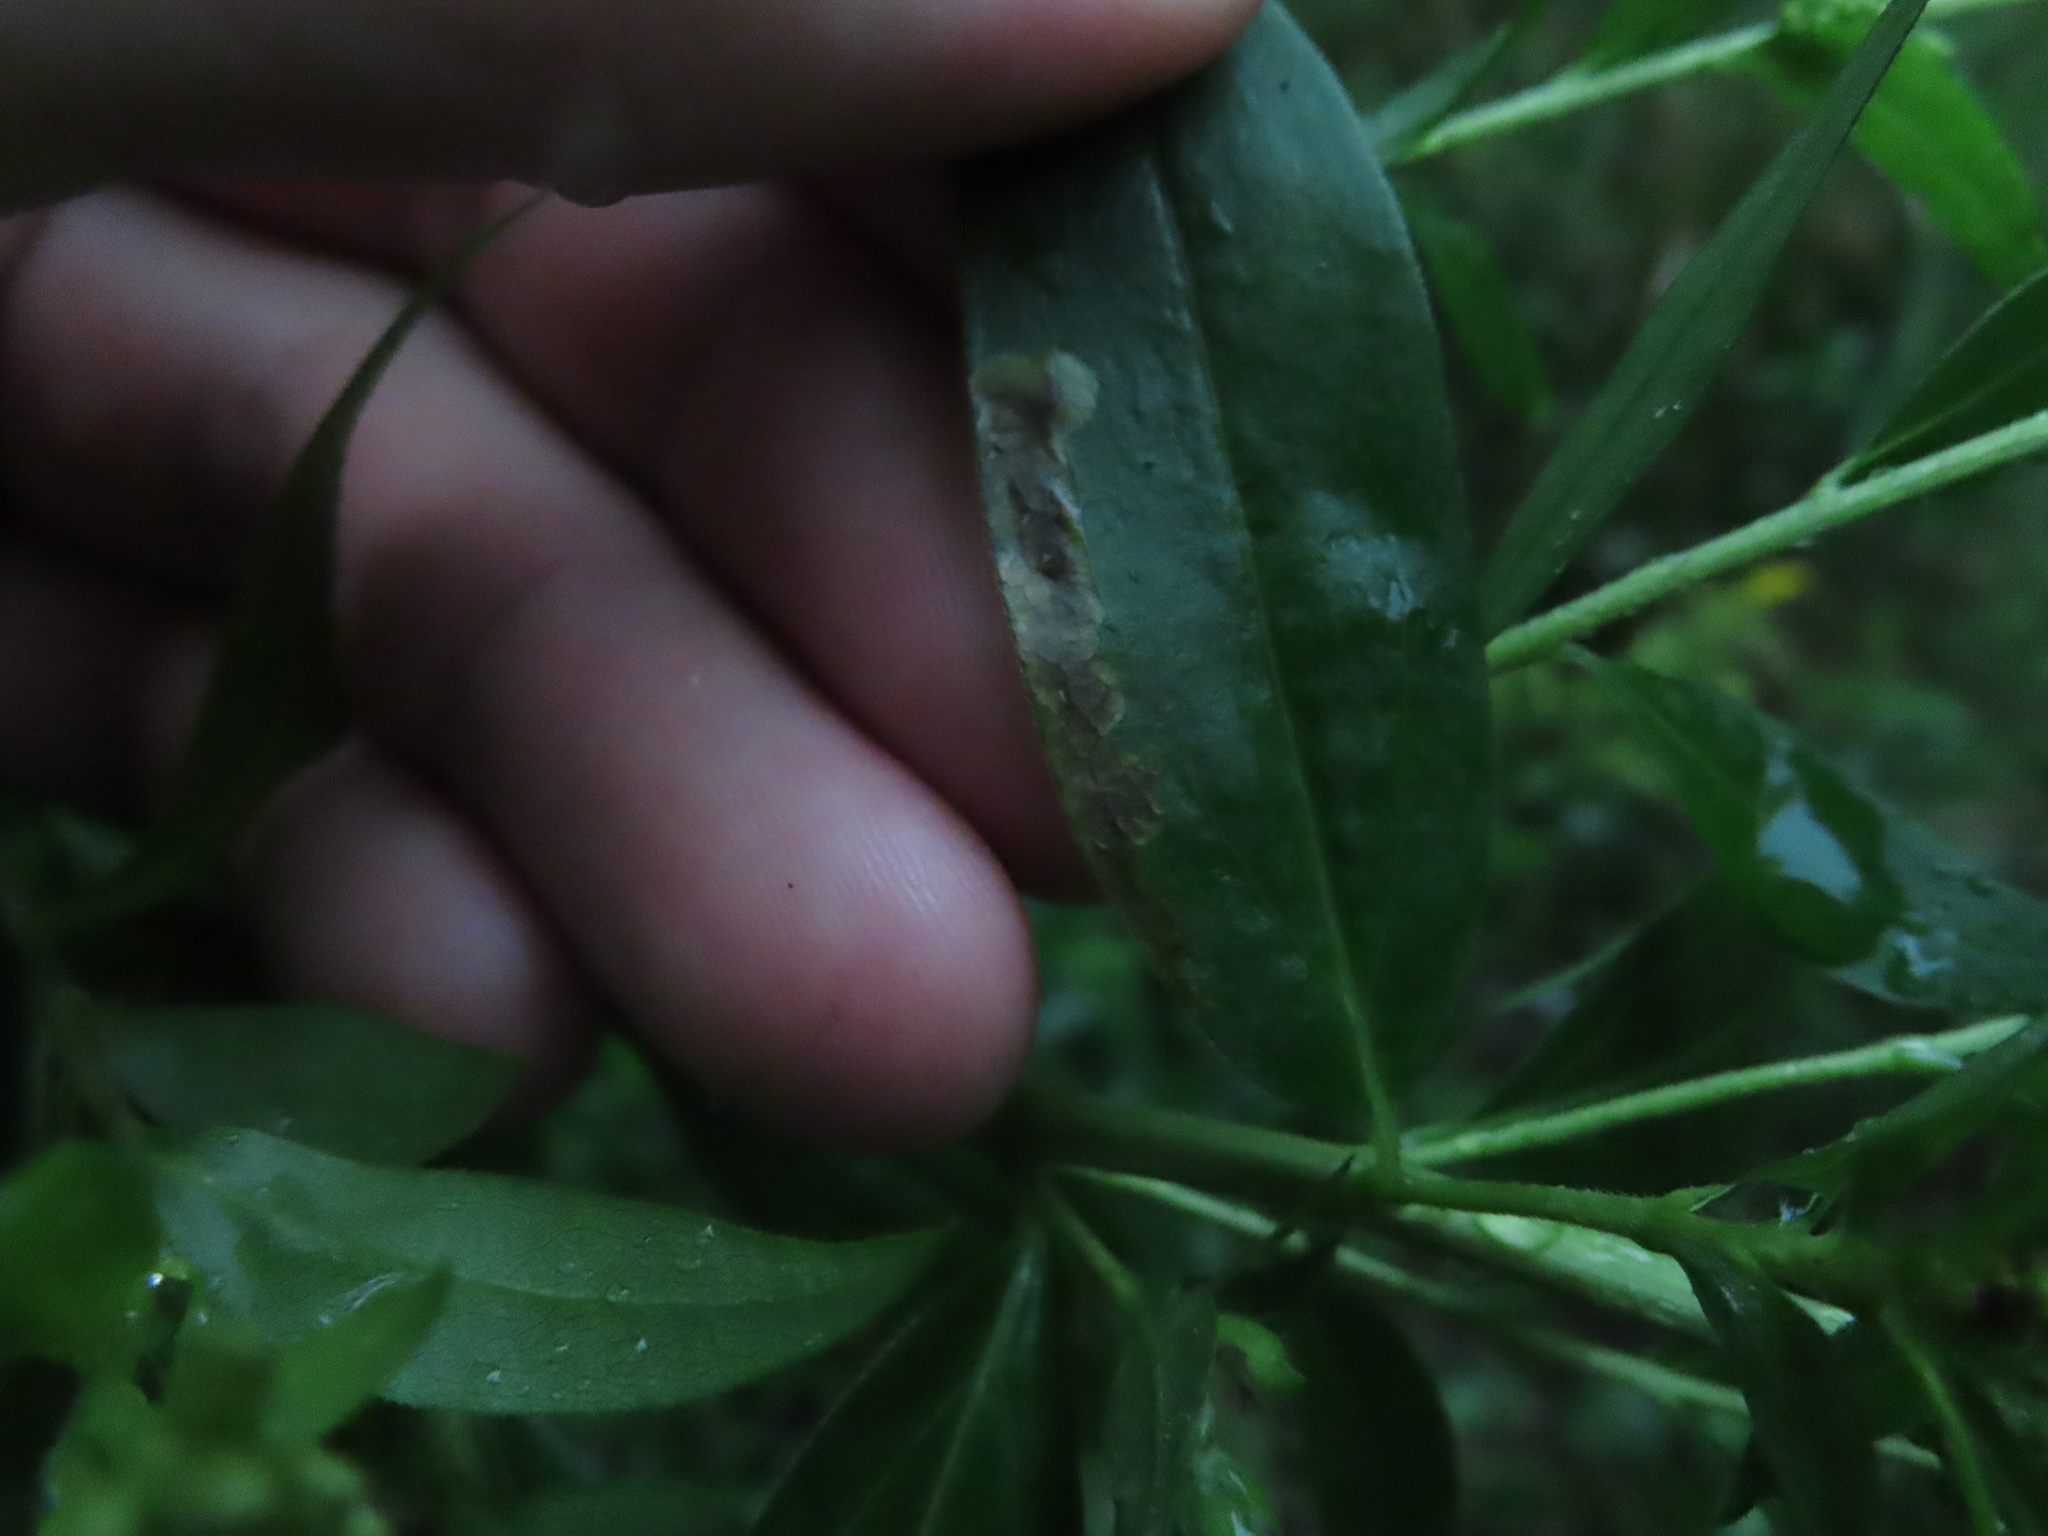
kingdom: Animalia
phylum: Arthropoda
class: Insecta
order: Diptera
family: Agromyzidae
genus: Nemorimyza
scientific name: Nemorimyza posticata
